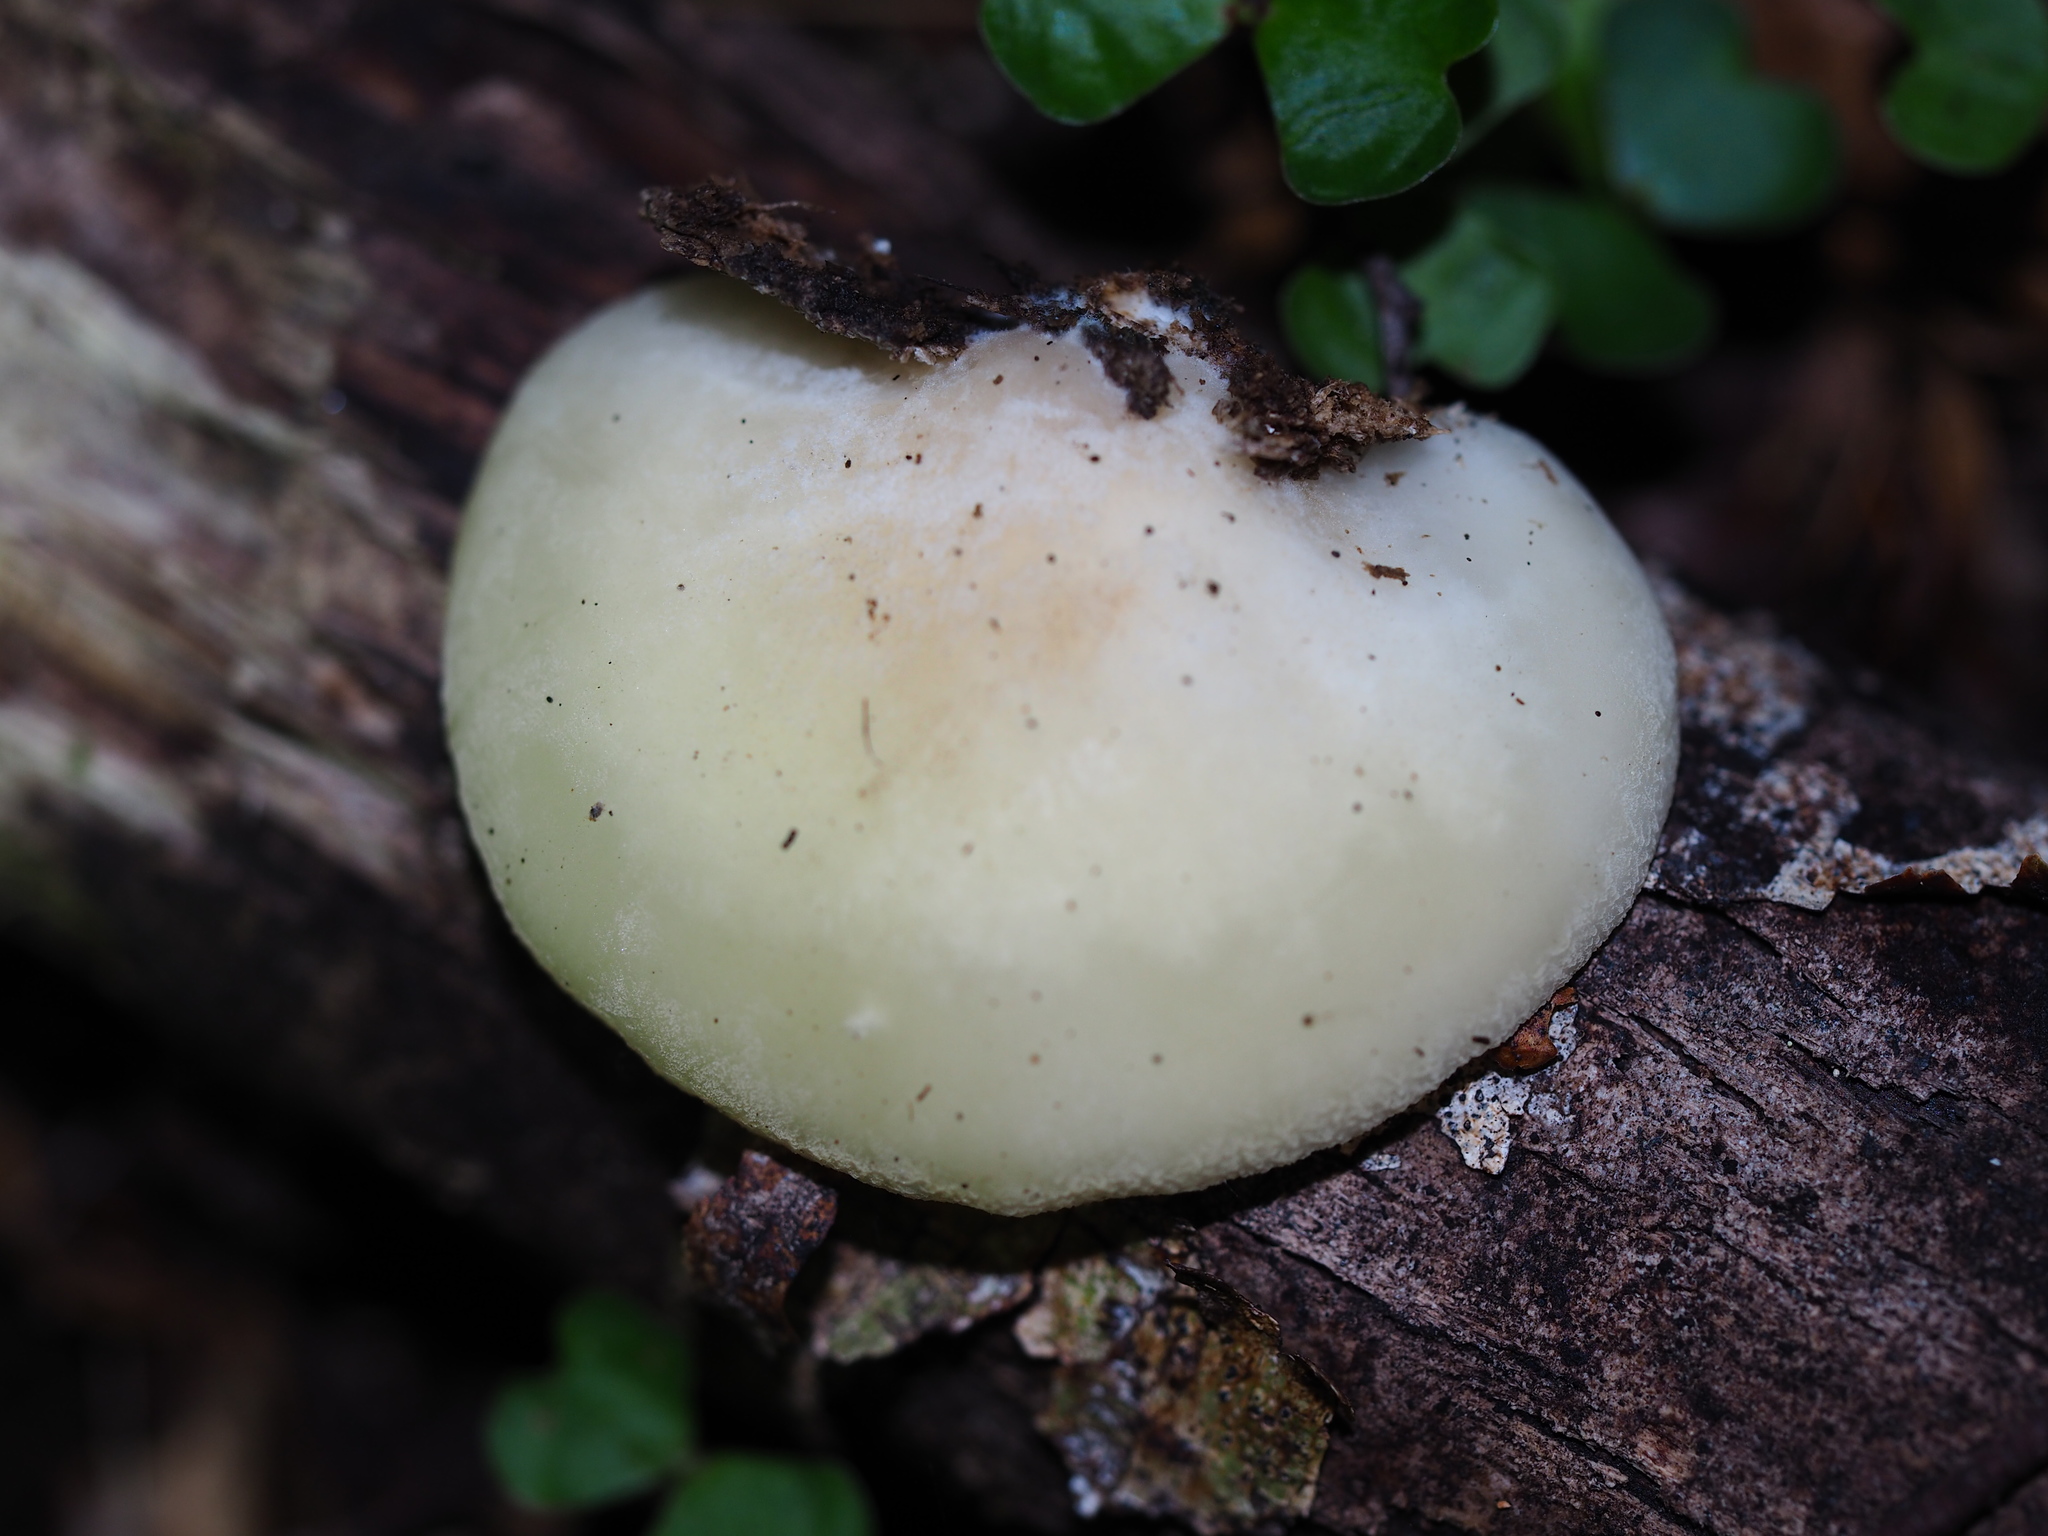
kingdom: Fungi
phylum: Basidiomycota
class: Agaricomycetes
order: Agaricales
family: Tricholomataceae
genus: Conchomyces
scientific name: Conchomyces bursiformis
